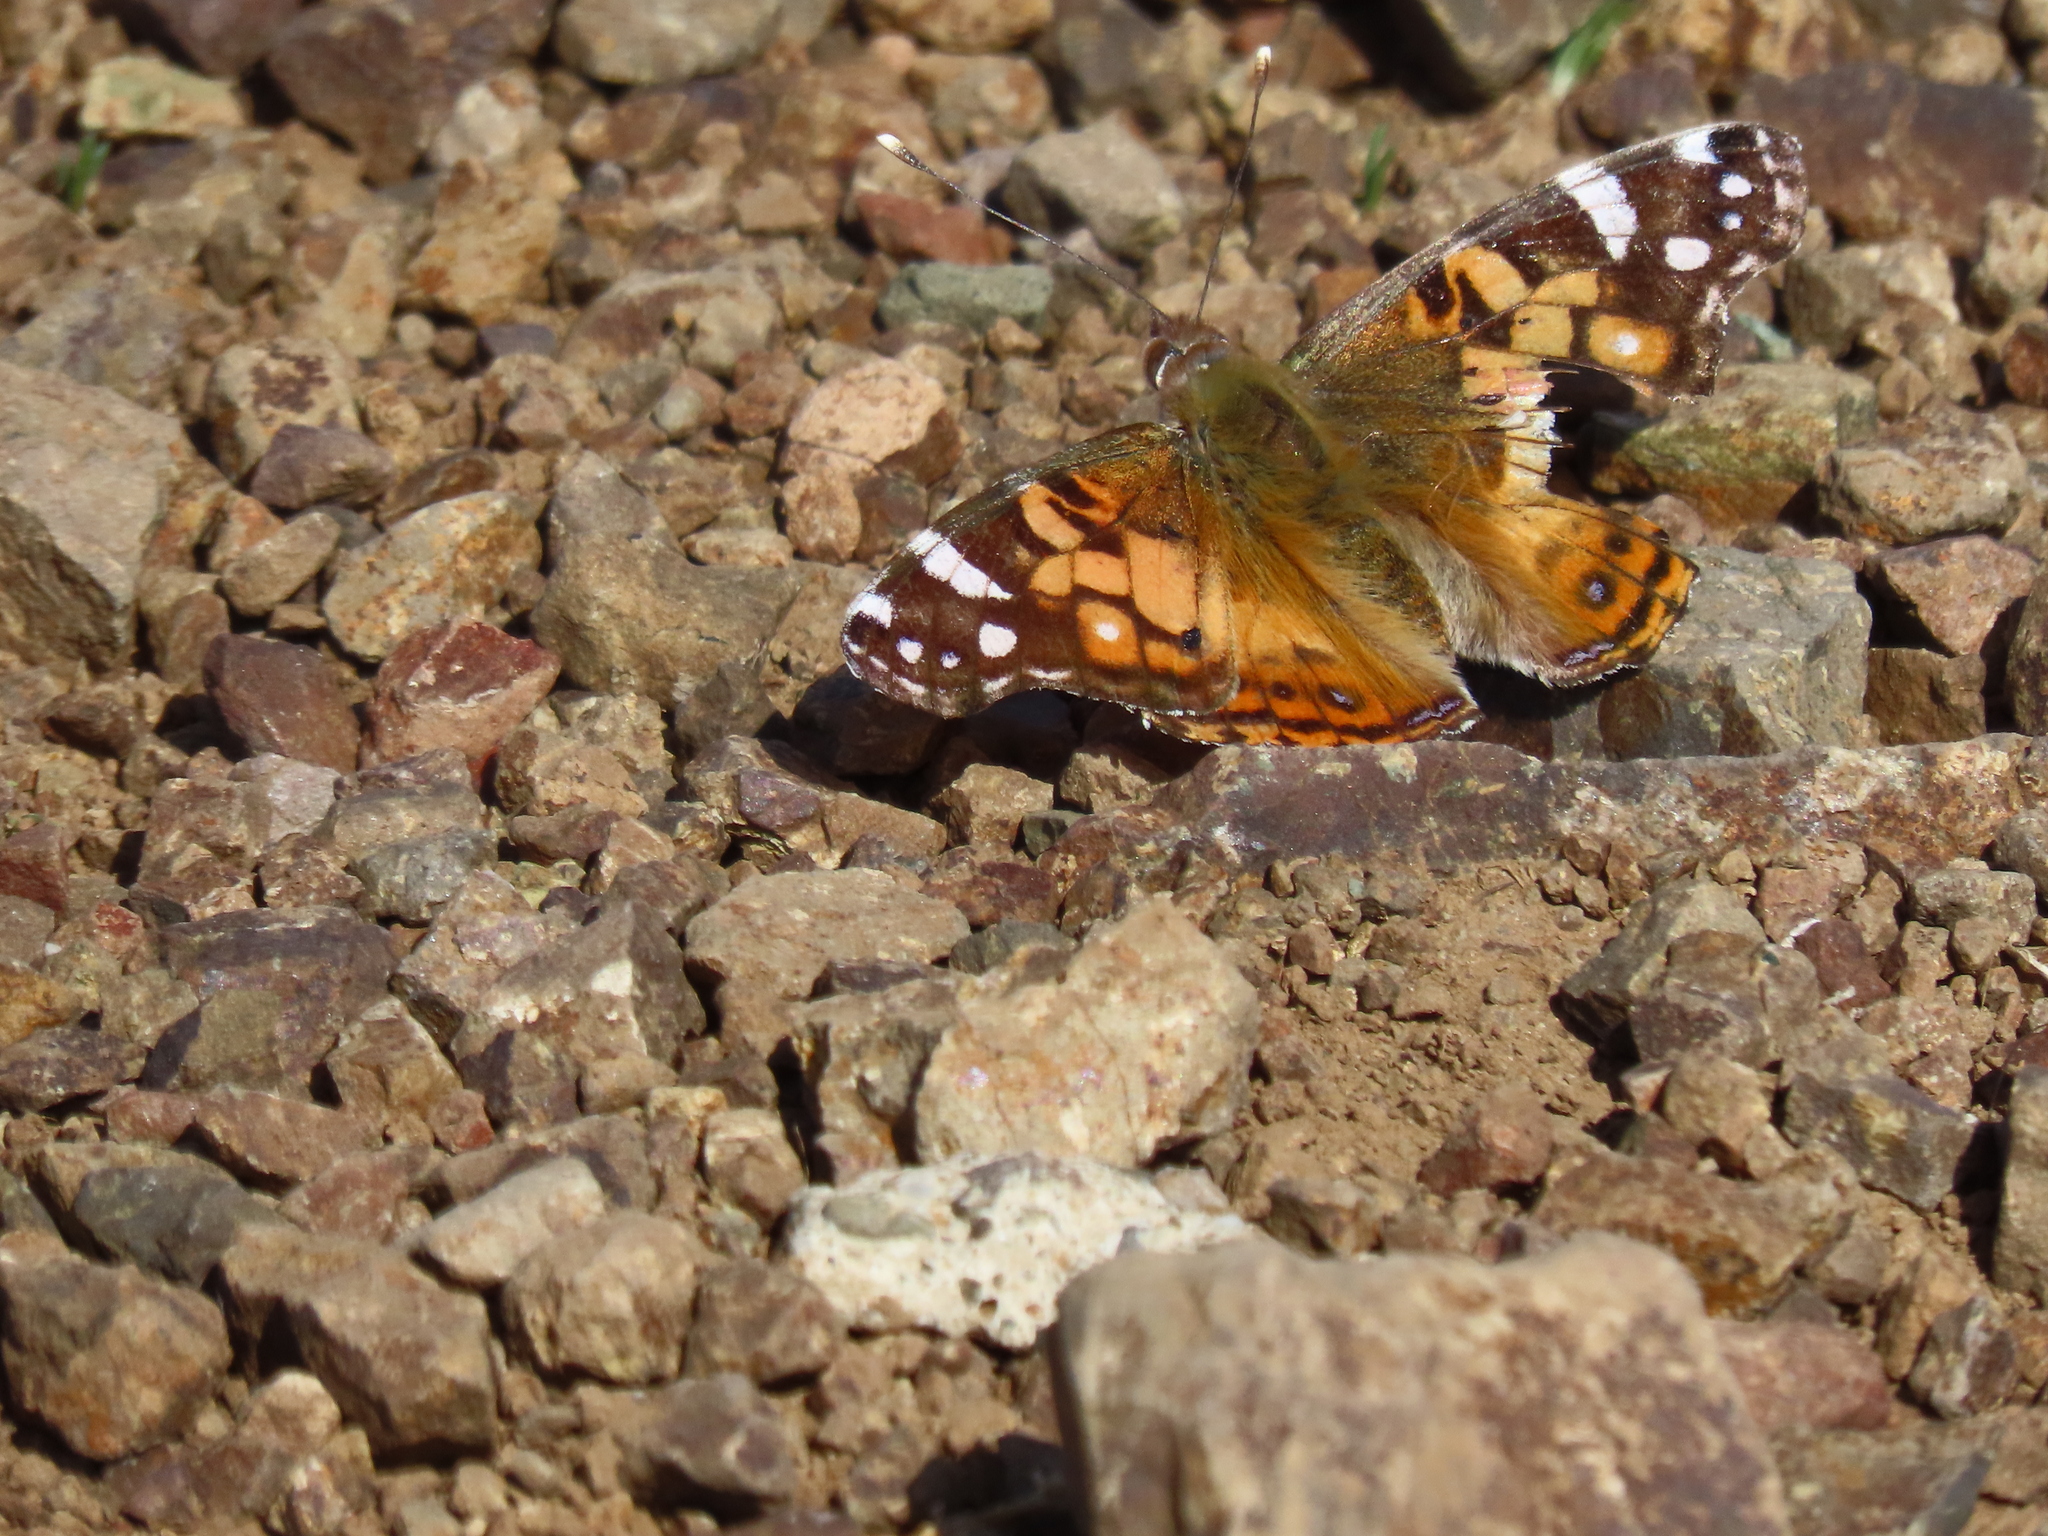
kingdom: Animalia
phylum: Arthropoda
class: Insecta
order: Lepidoptera
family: Nymphalidae
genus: Vanessa
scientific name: Vanessa virginiensis
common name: American lady
